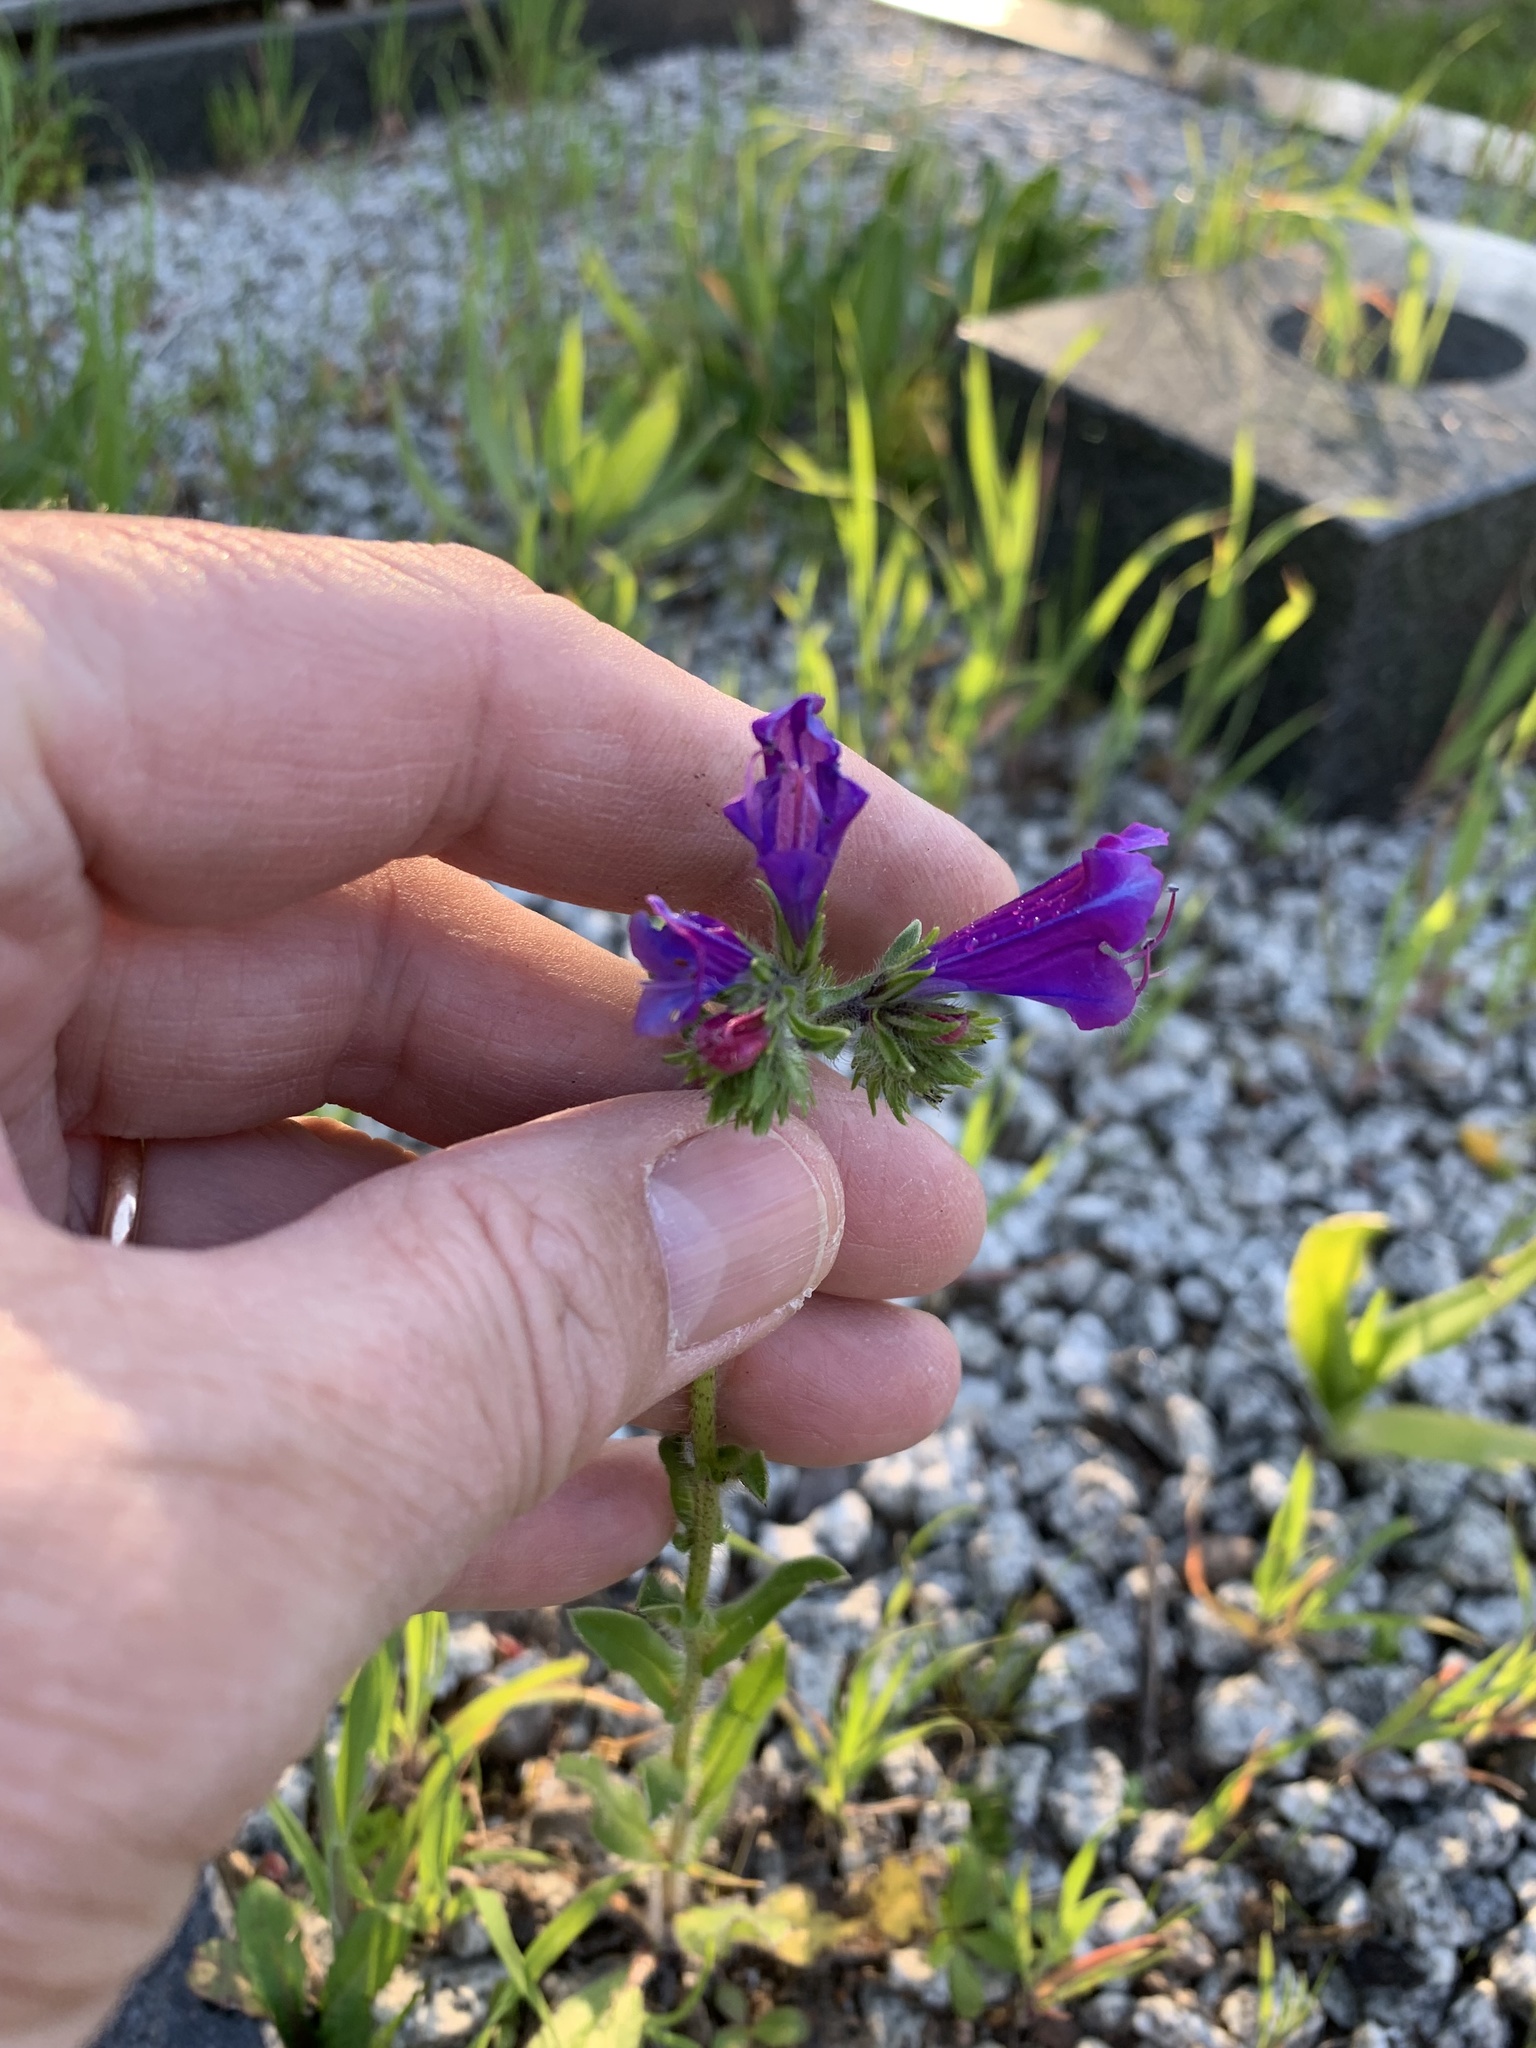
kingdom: Plantae
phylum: Tracheophyta
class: Magnoliopsida
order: Boraginales
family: Boraginaceae
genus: Echium
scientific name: Echium plantagineum
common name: Purple viper's-bugloss
